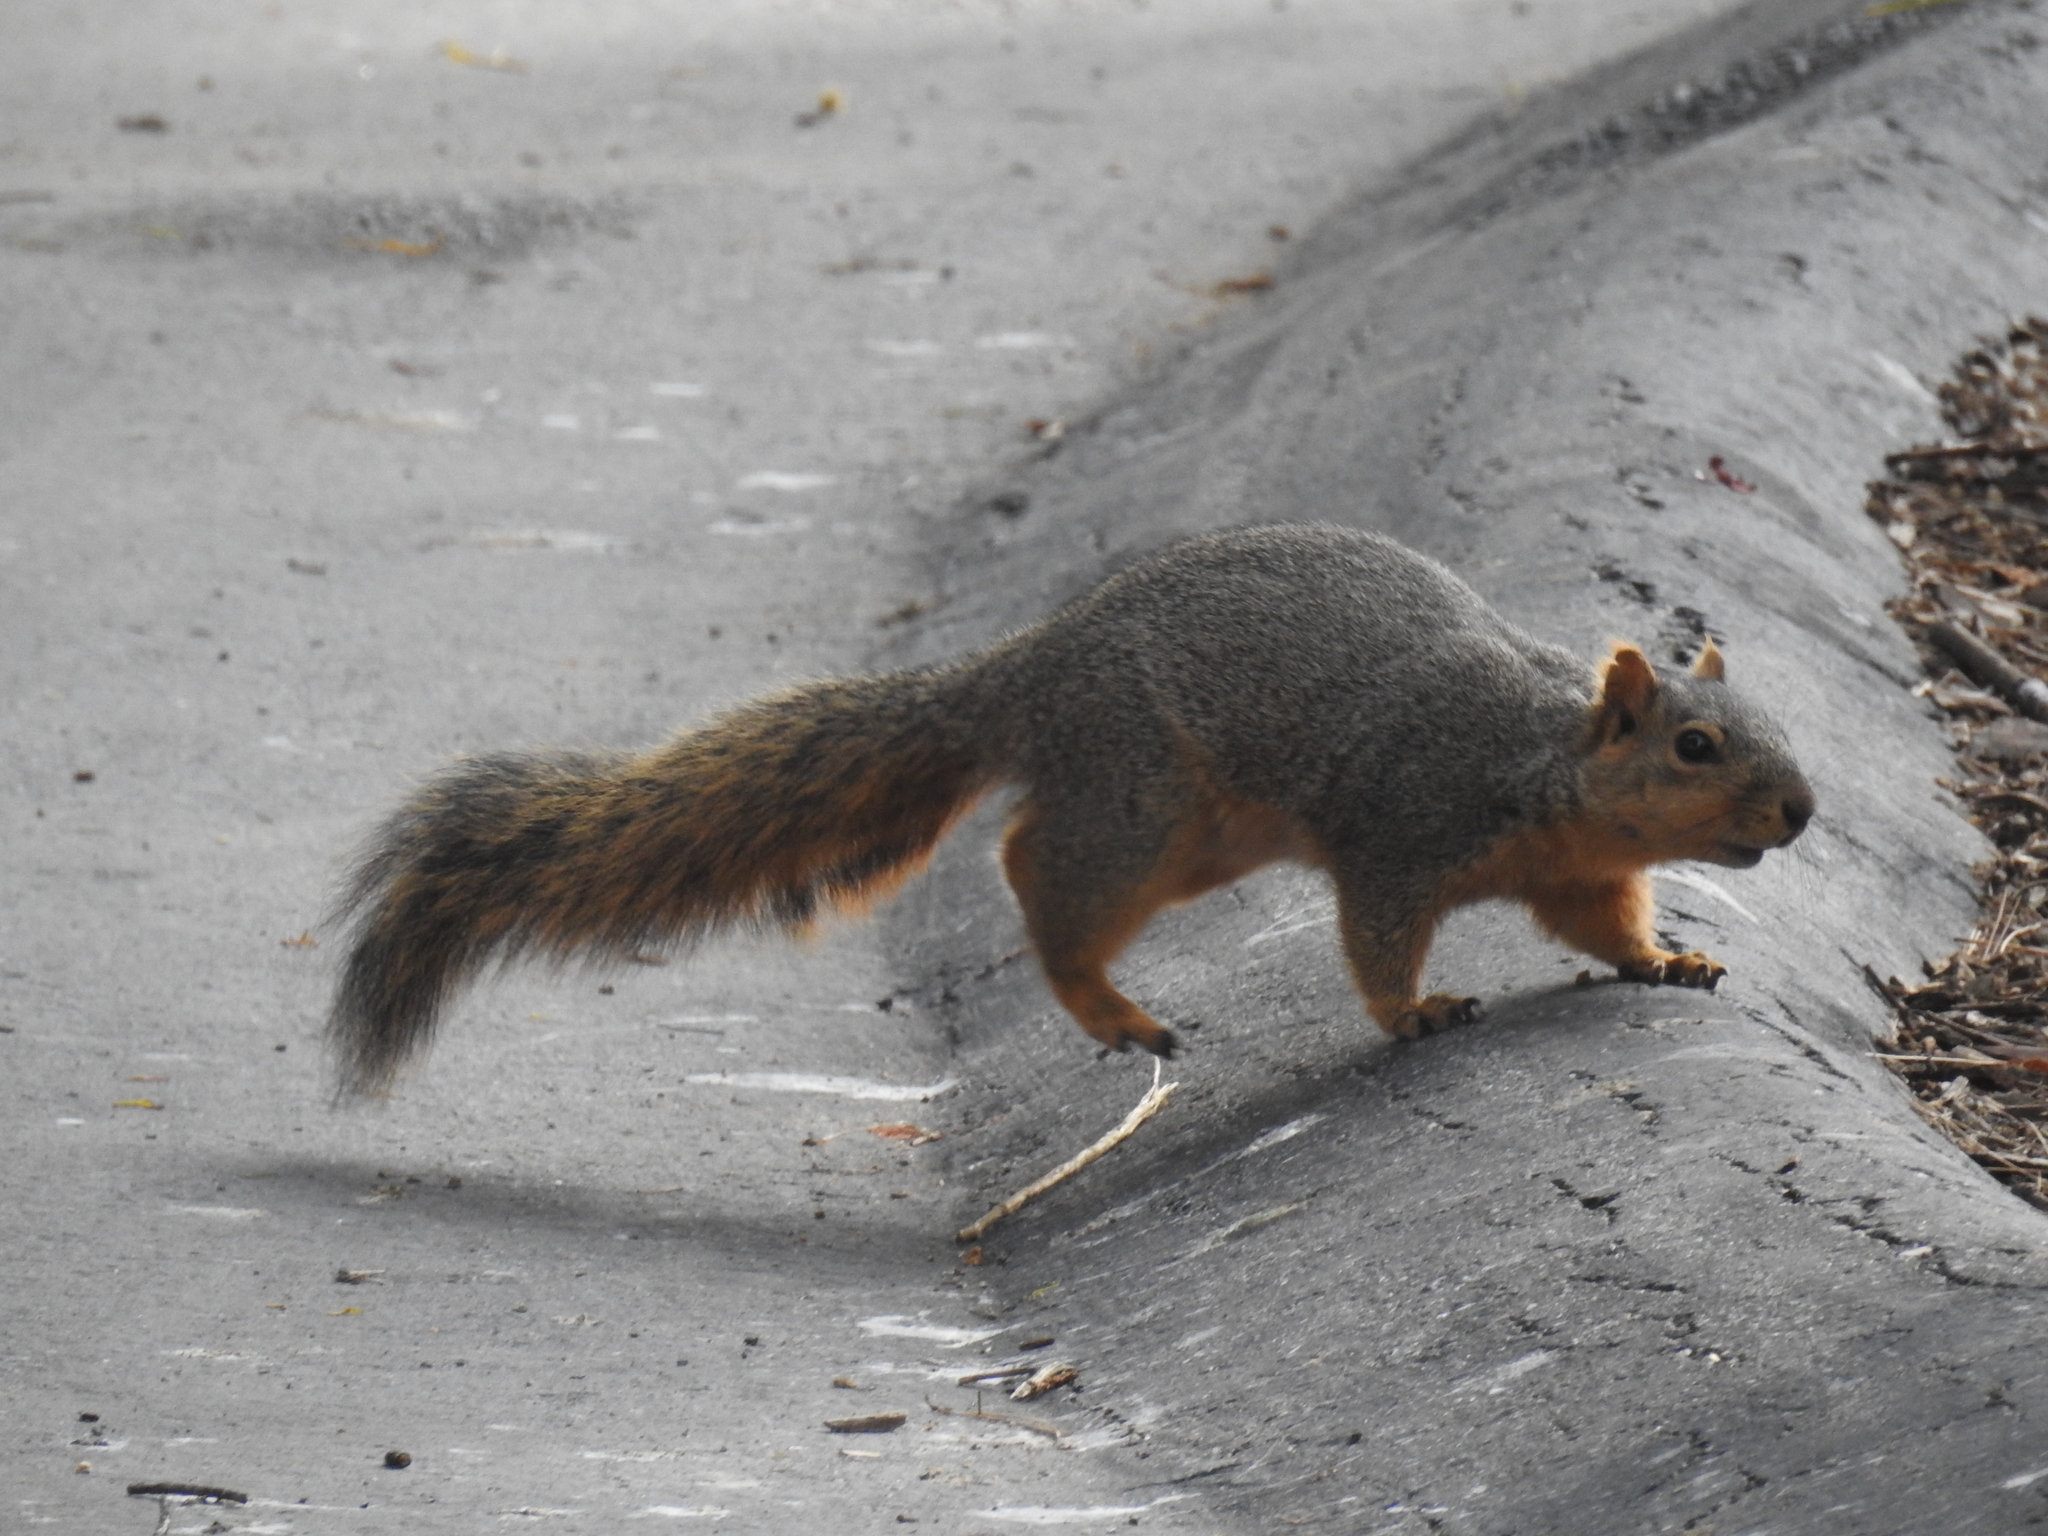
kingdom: Animalia
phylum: Chordata
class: Mammalia
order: Rodentia
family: Sciuridae
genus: Sciurus
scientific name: Sciurus niger
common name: Fox squirrel
